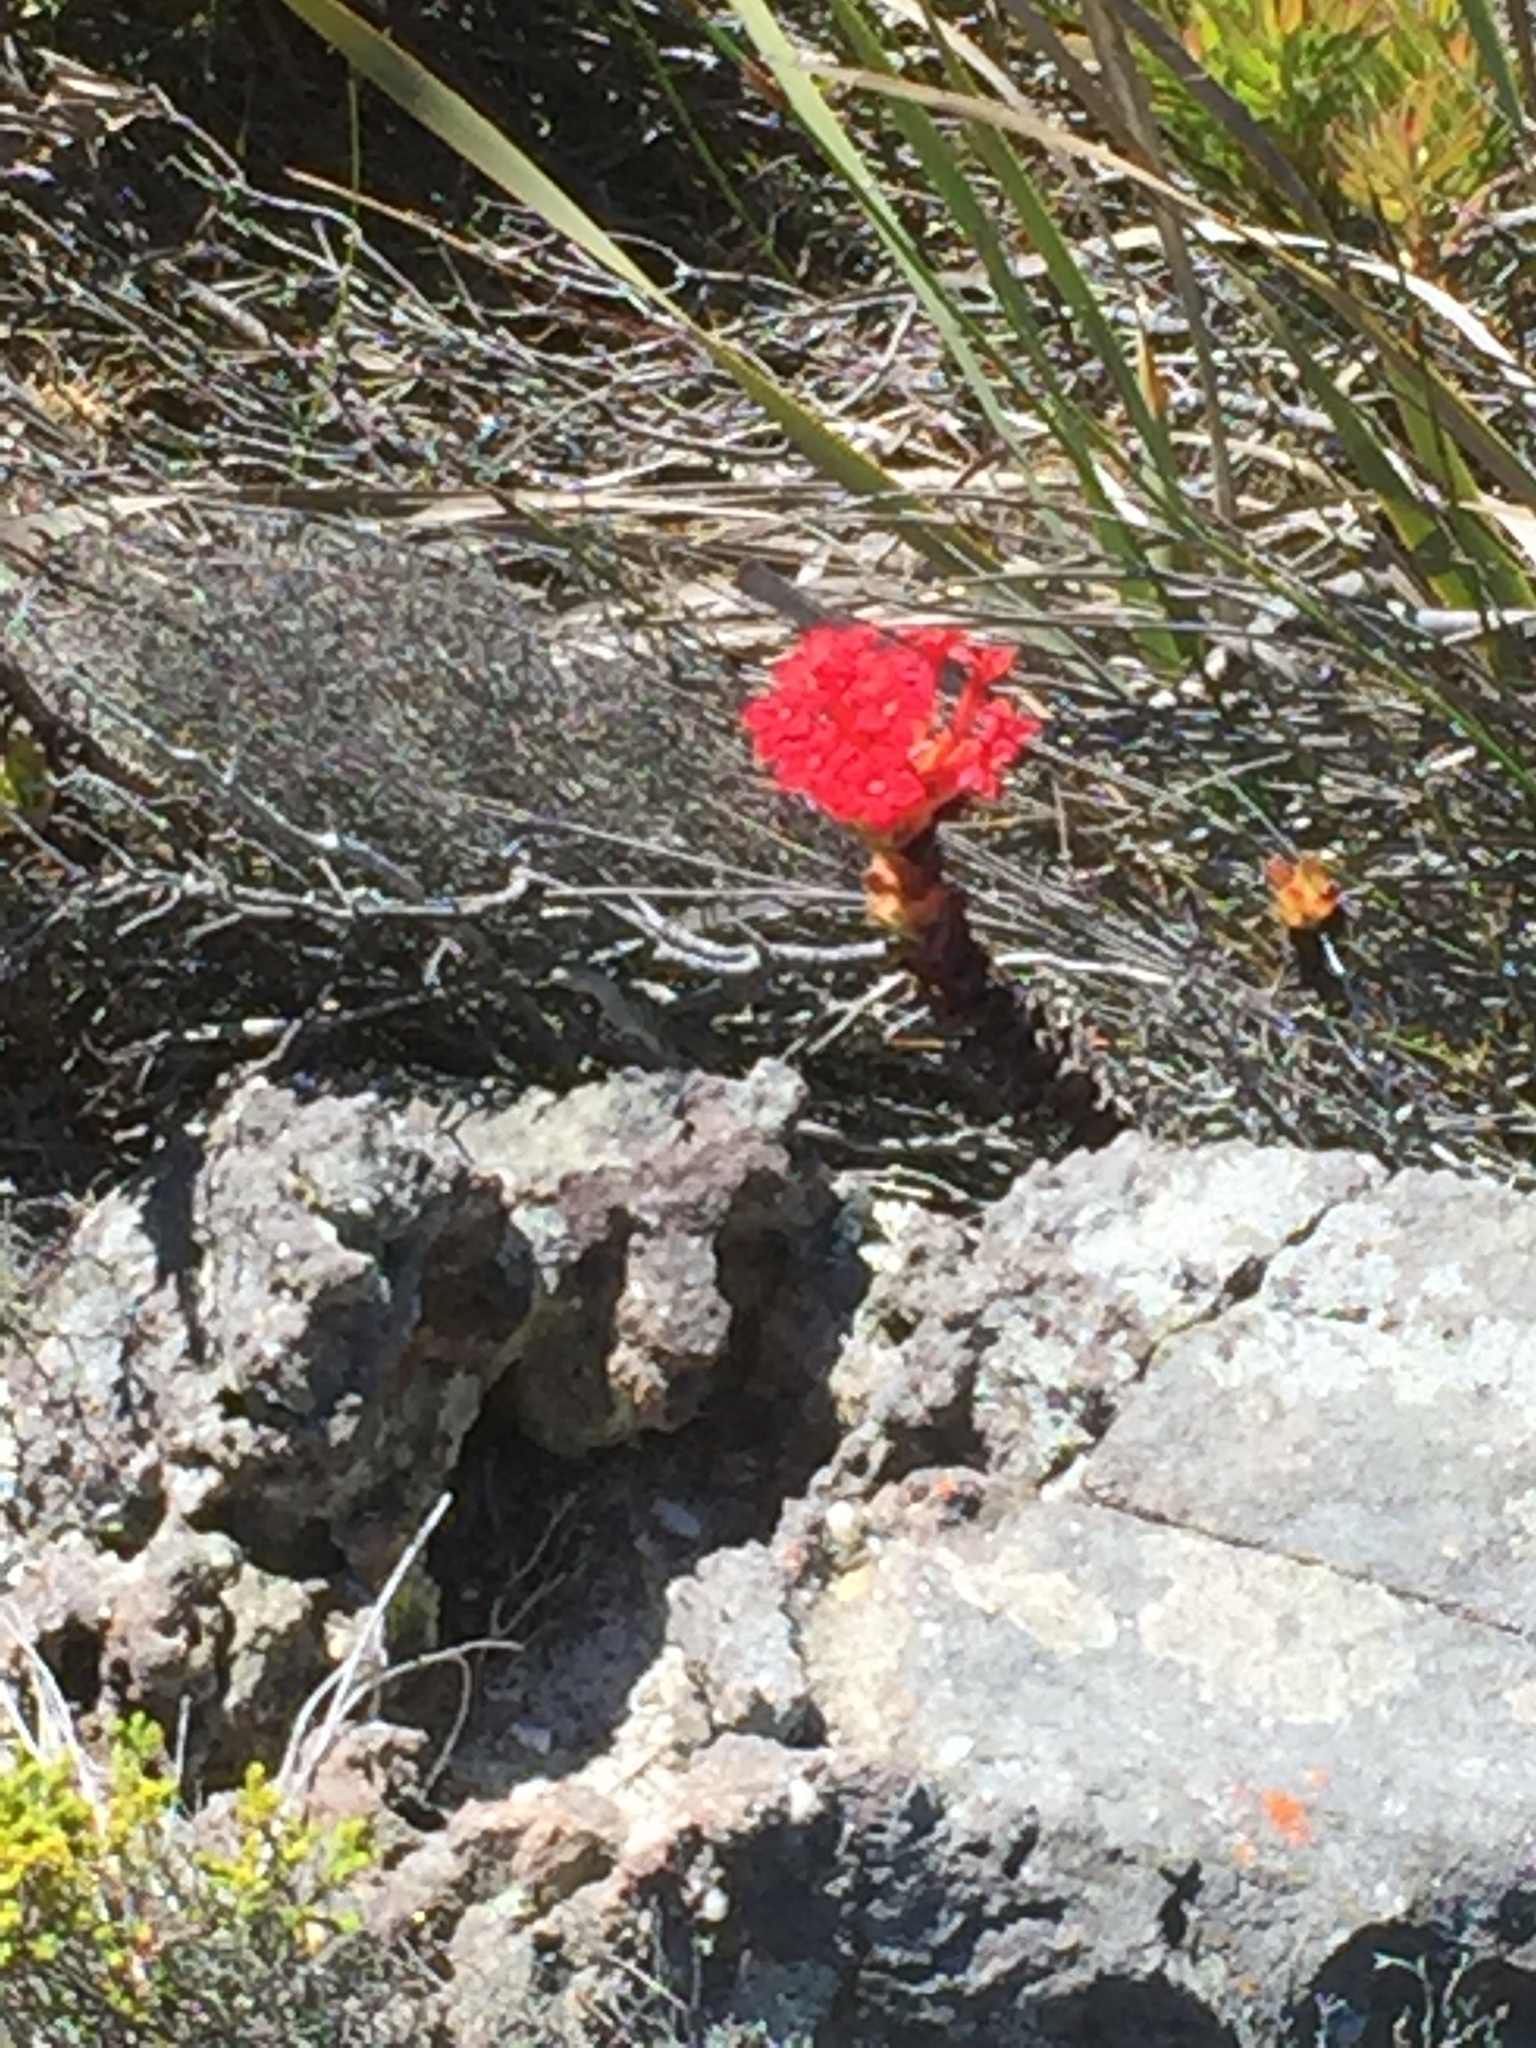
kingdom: Plantae
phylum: Tracheophyta
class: Magnoliopsida
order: Saxifragales
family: Crassulaceae
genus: Crassula
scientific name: Crassula coccinea
